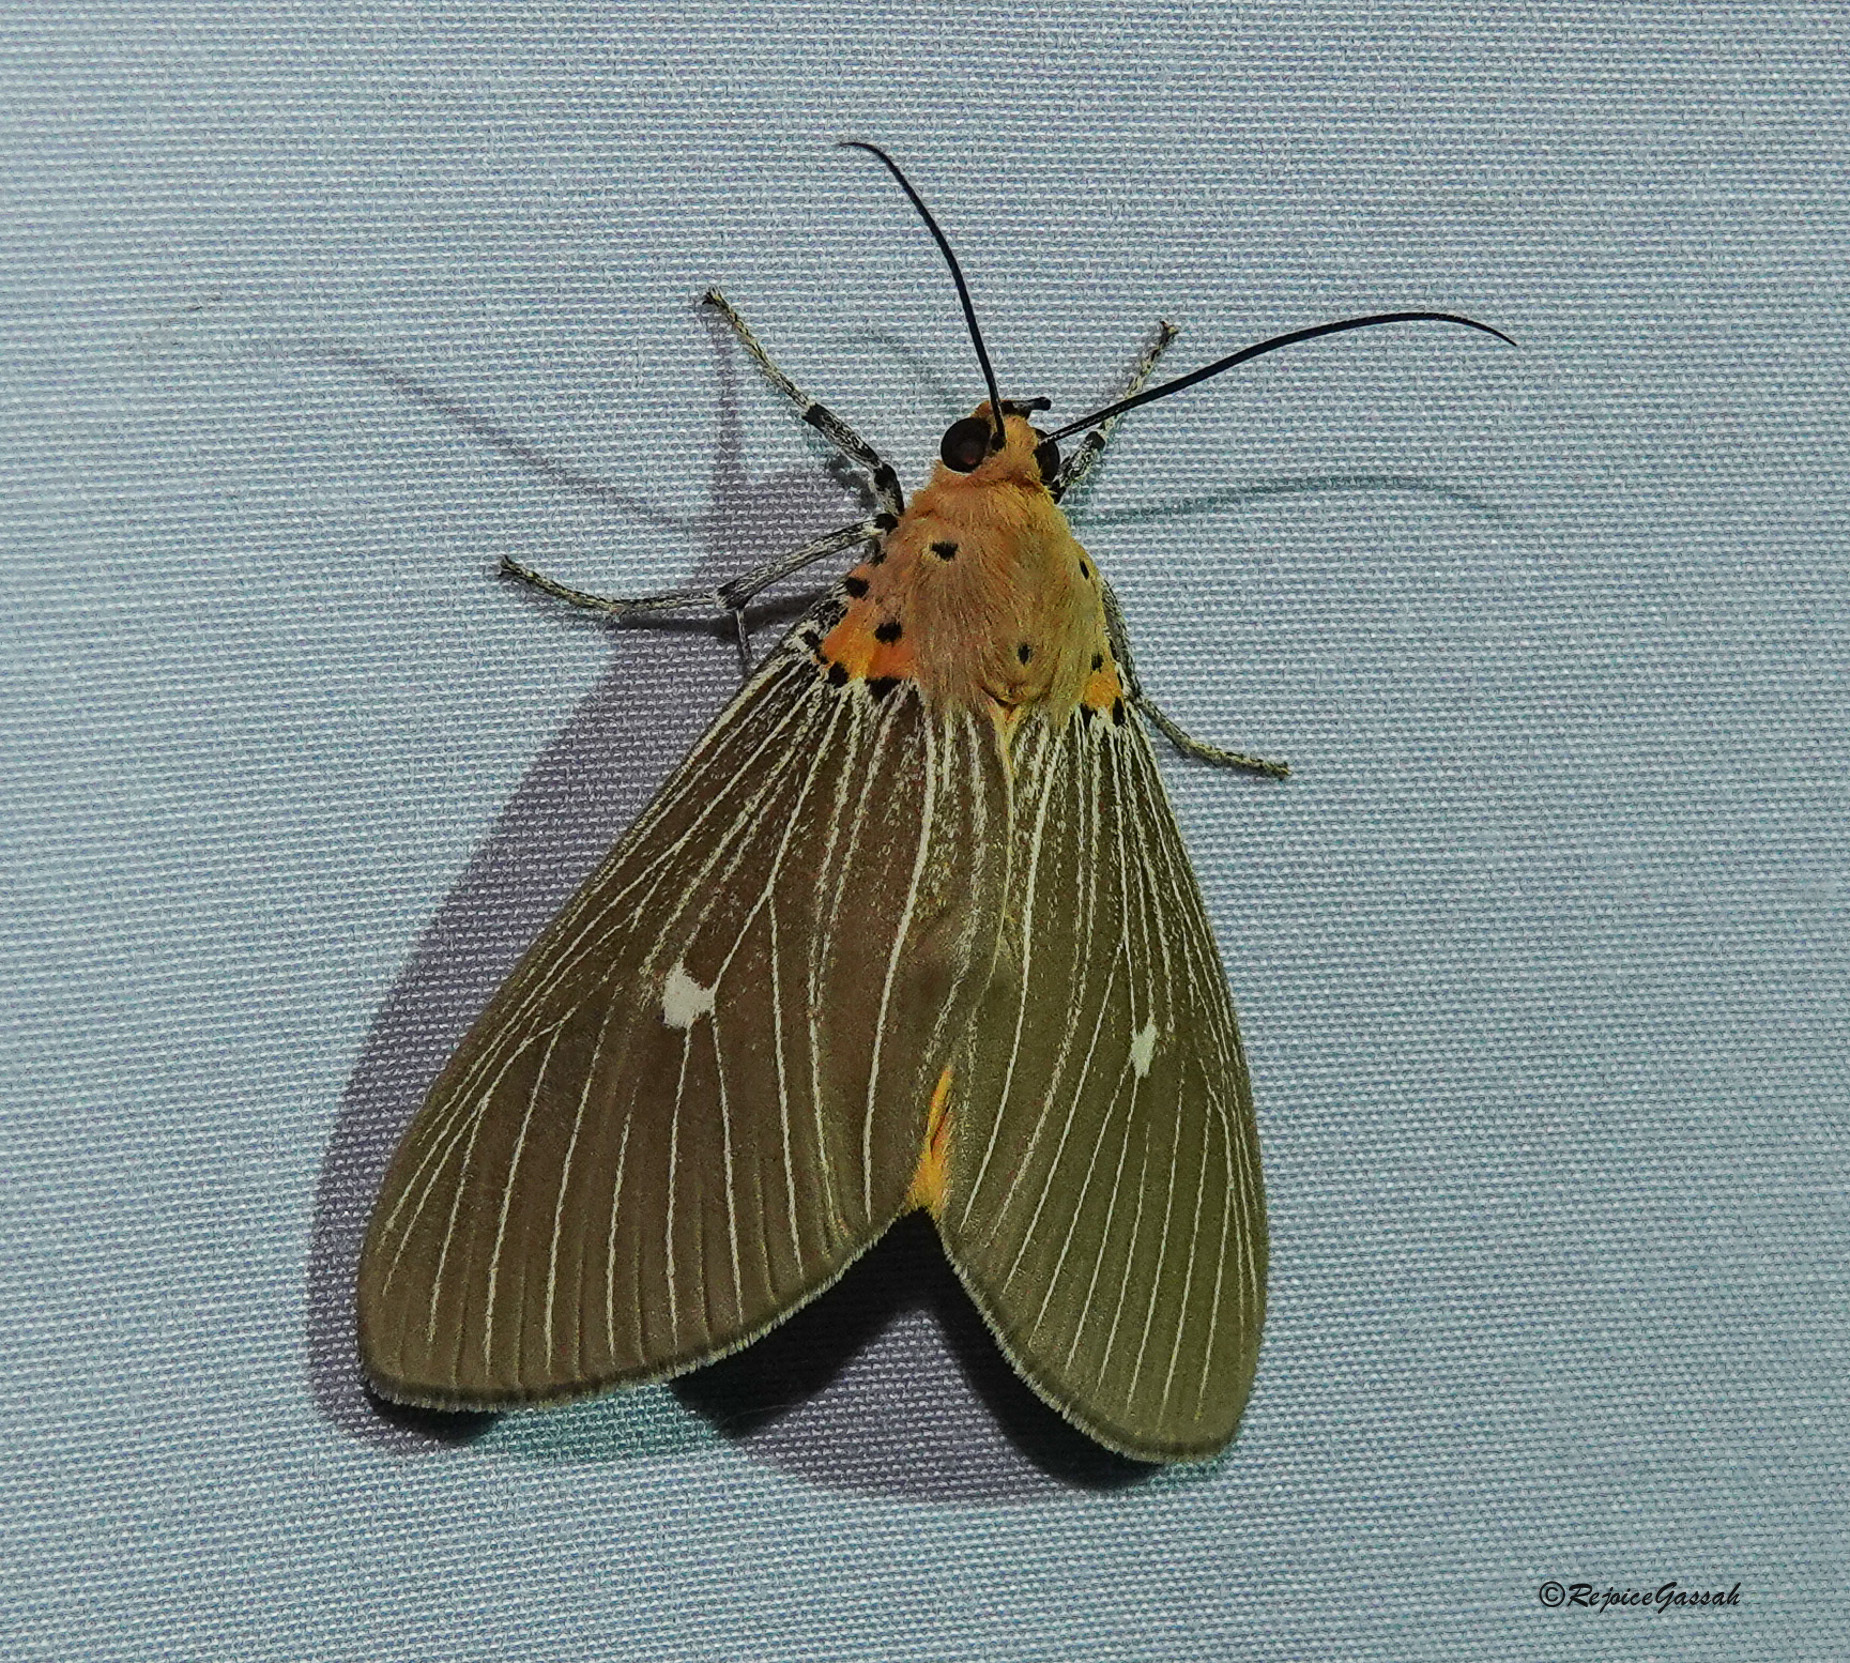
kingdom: Animalia
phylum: Arthropoda
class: Insecta
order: Lepidoptera
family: Erebidae
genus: Asota
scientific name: Asota caricae
